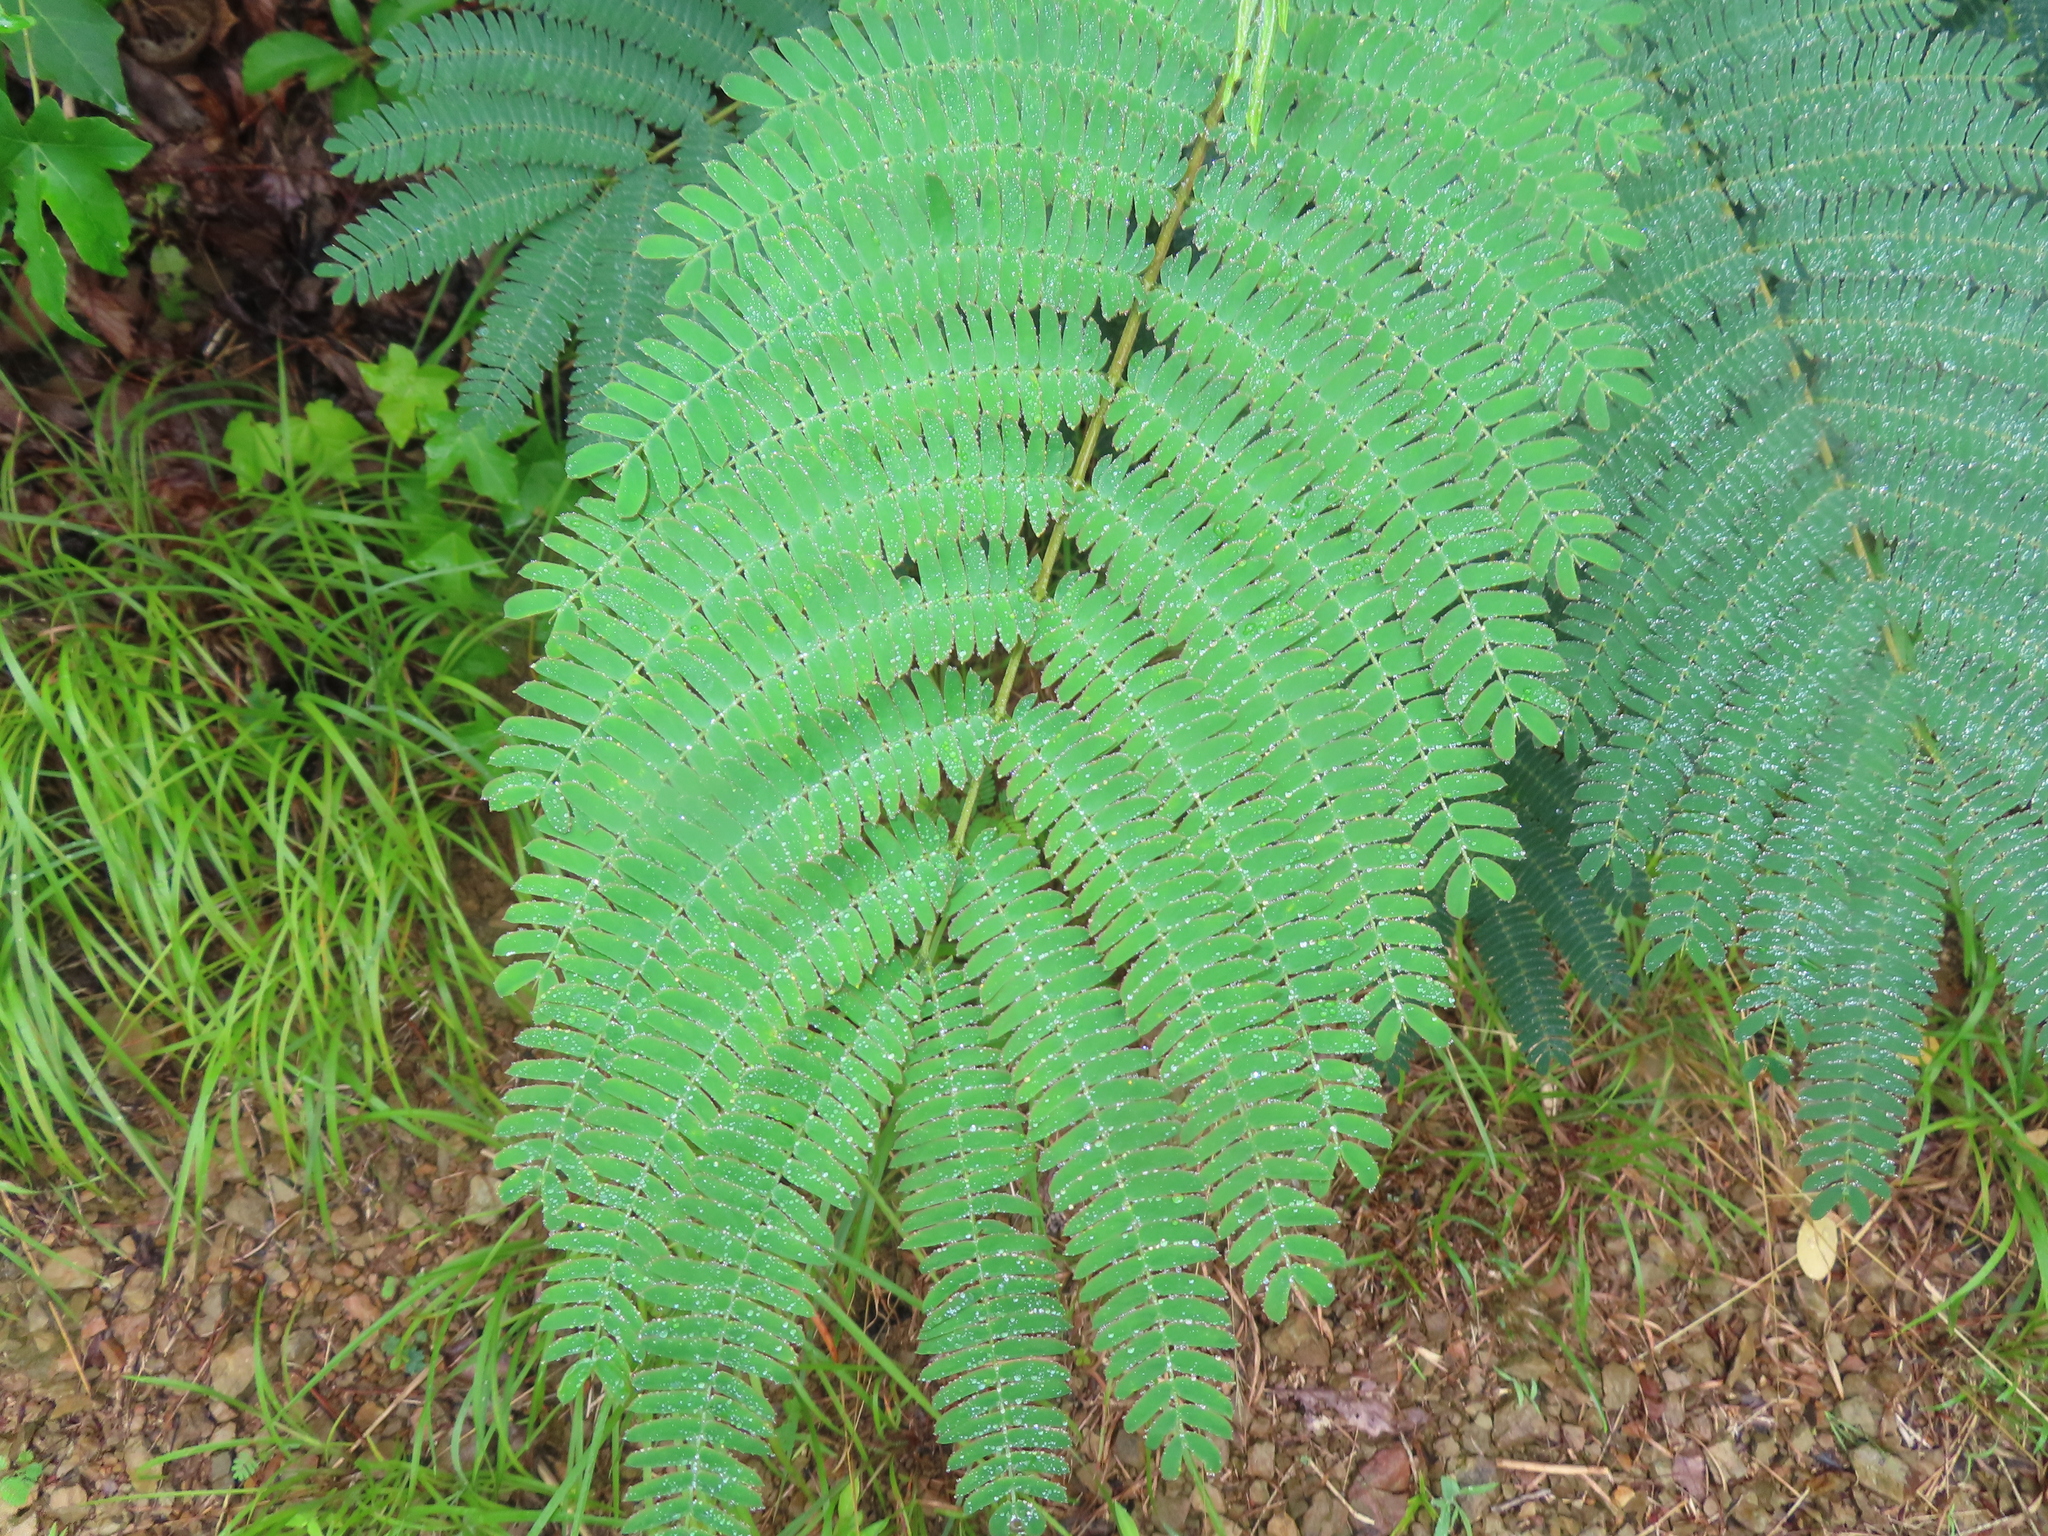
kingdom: Plantae
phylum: Tracheophyta
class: Magnoliopsida
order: Fabales
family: Fabaceae
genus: Albizia
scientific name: Albizia julibrissin
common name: Silktree
